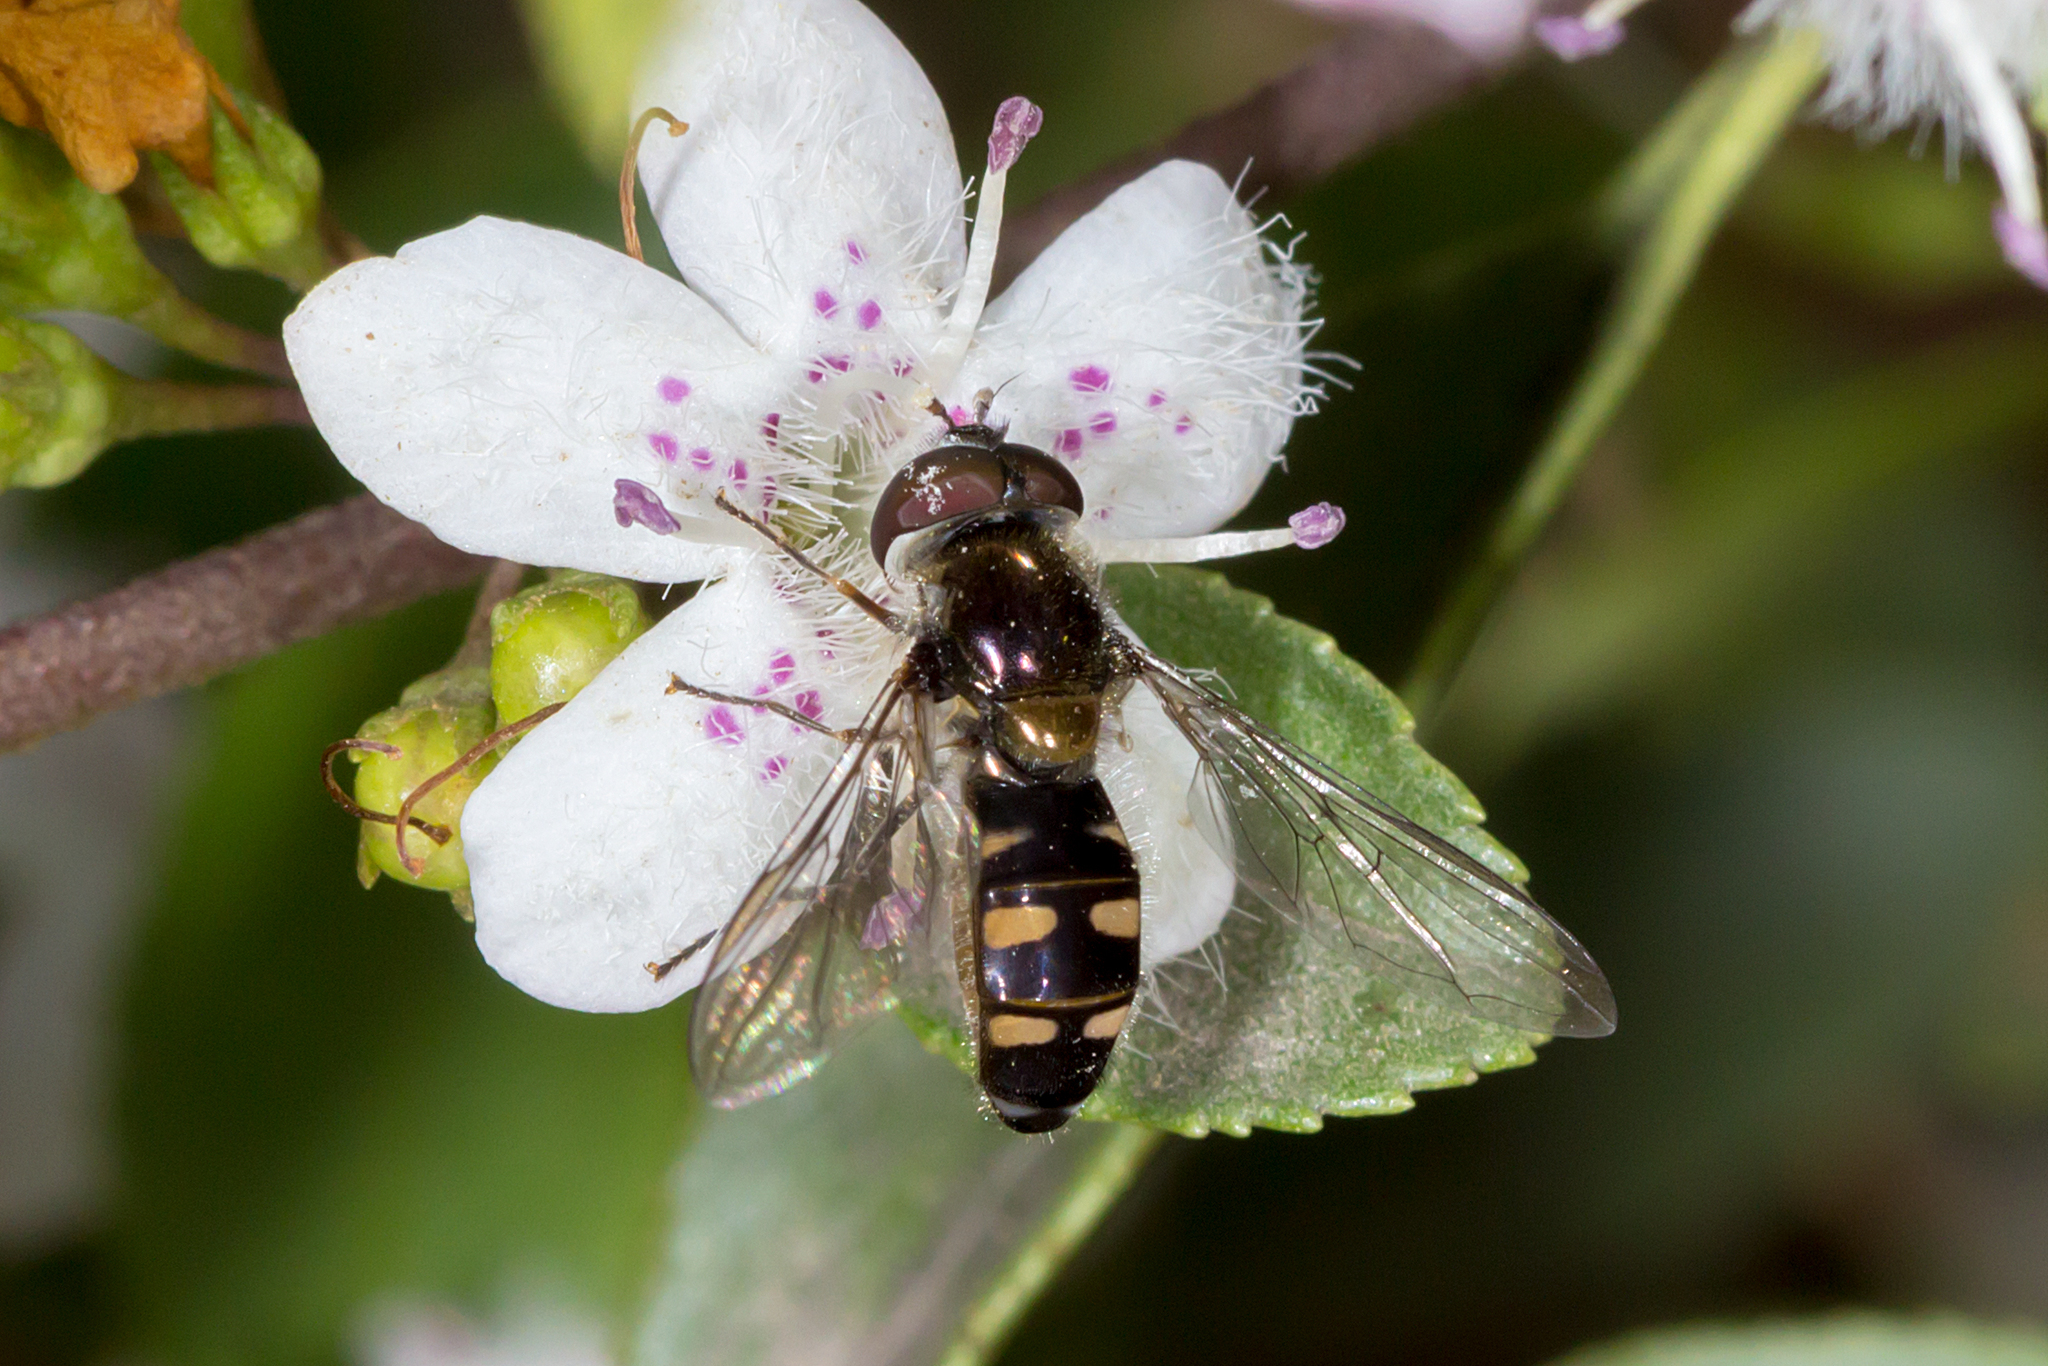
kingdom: Animalia
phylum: Arthropoda
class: Insecta
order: Diptera
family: Syrphidae
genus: Melangyna
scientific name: Melangyna viridiceps
